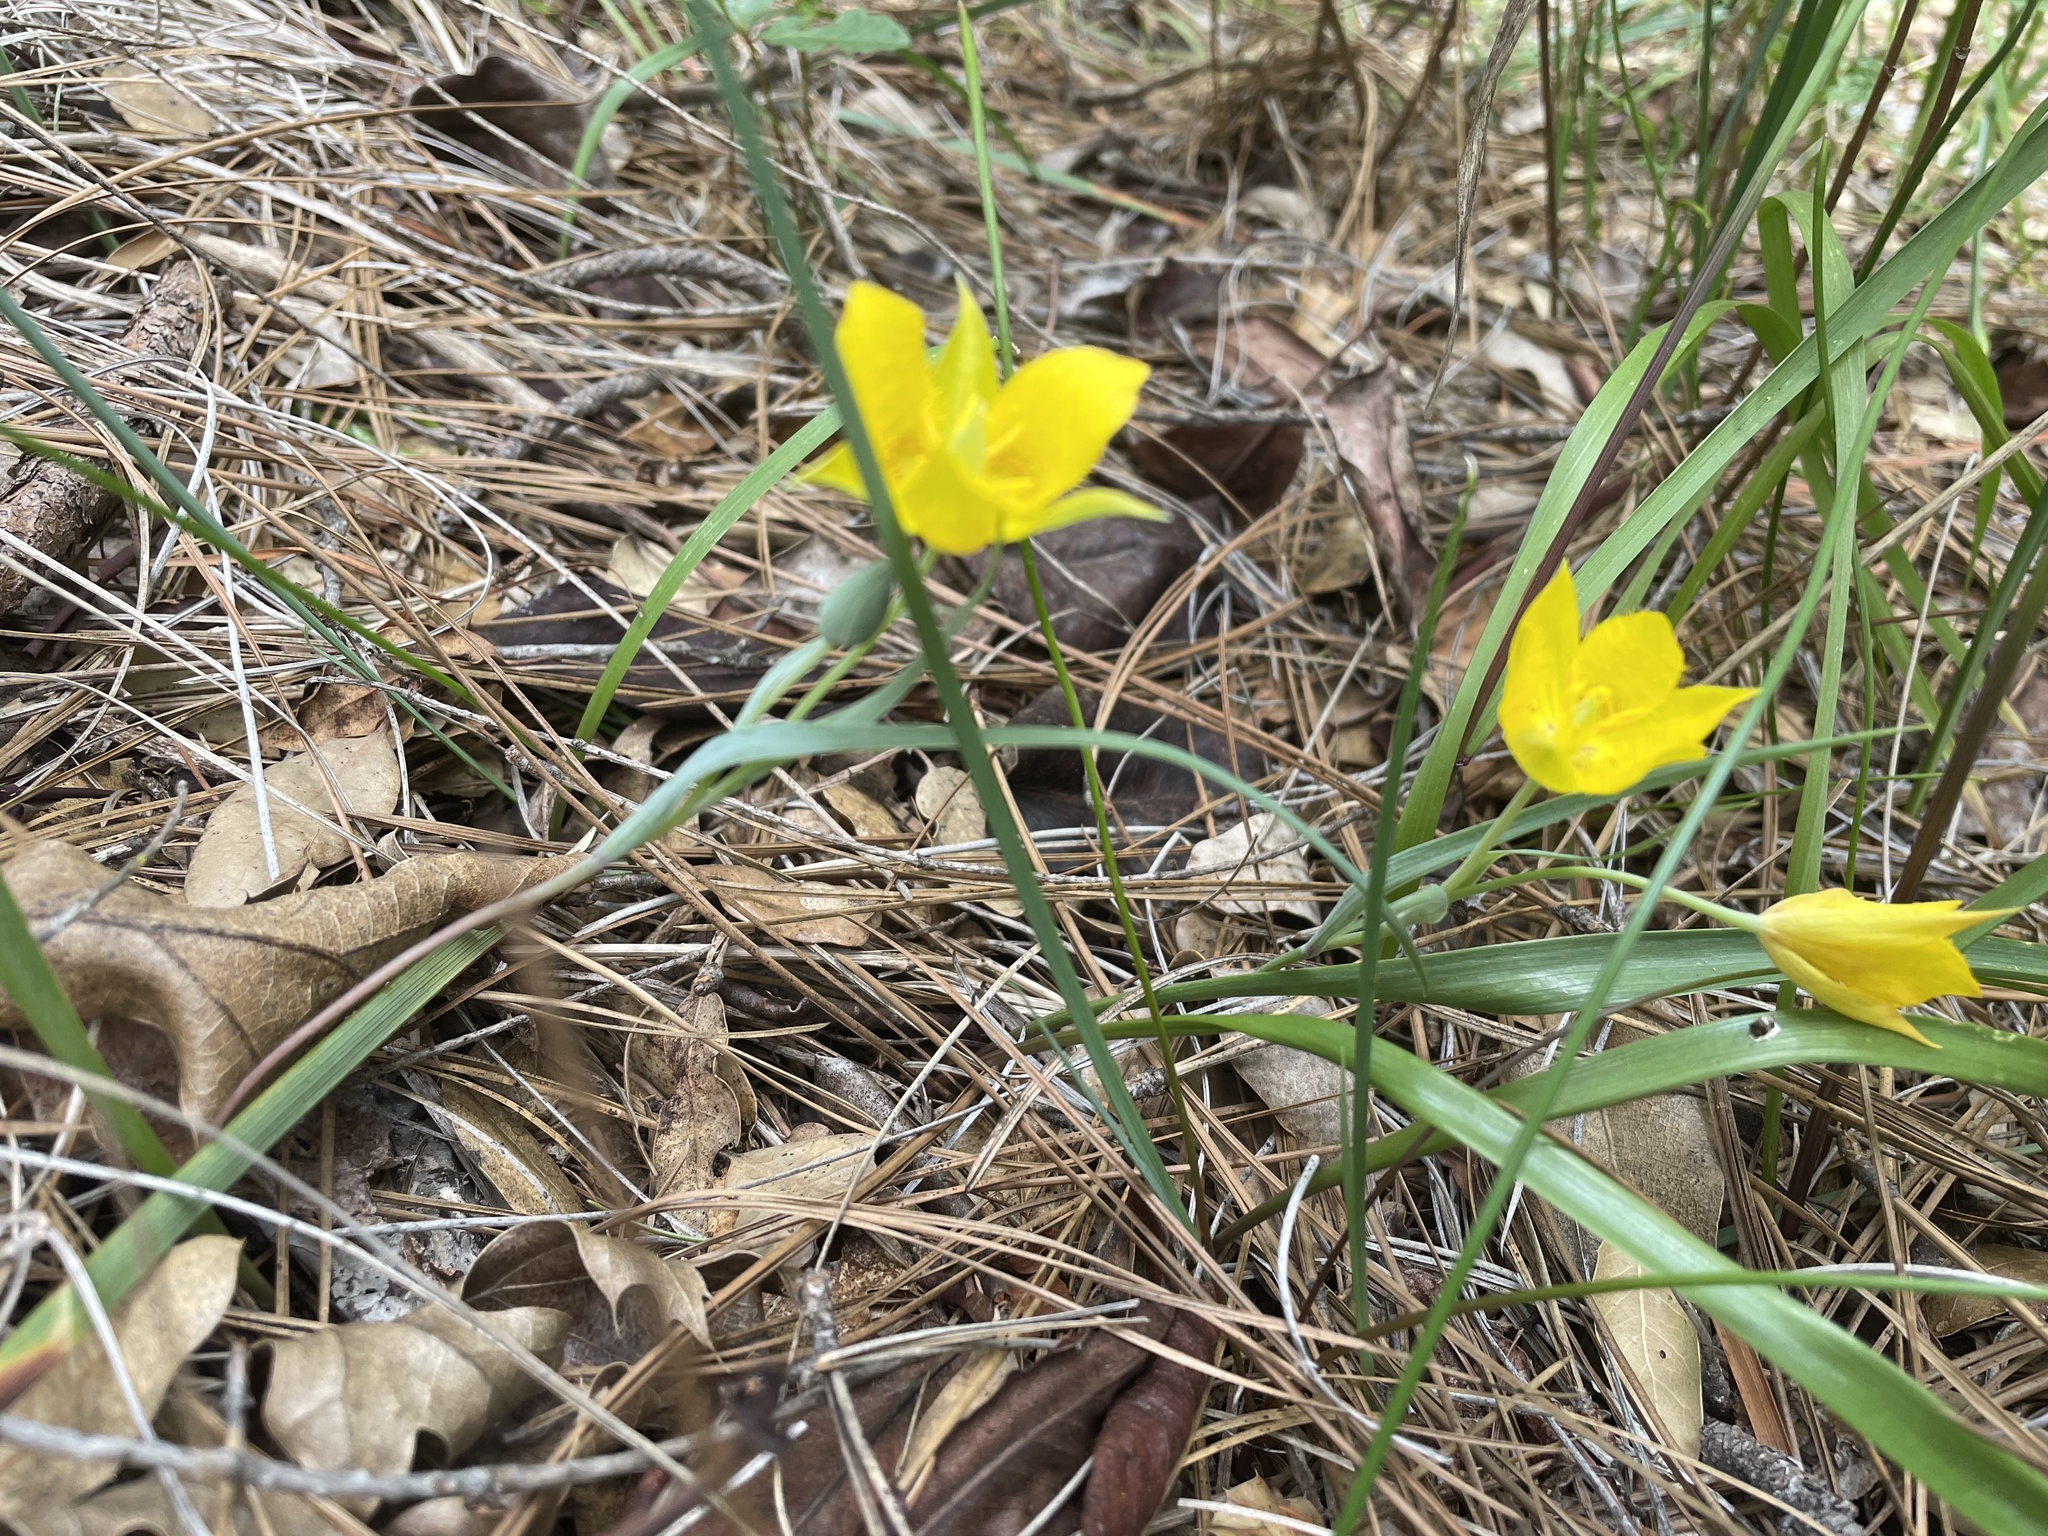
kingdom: Plantae
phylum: Tracheophyta
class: Liliopsida
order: Liliales
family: Liliaceae
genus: Calochortus
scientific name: Calochortus monophyllus
